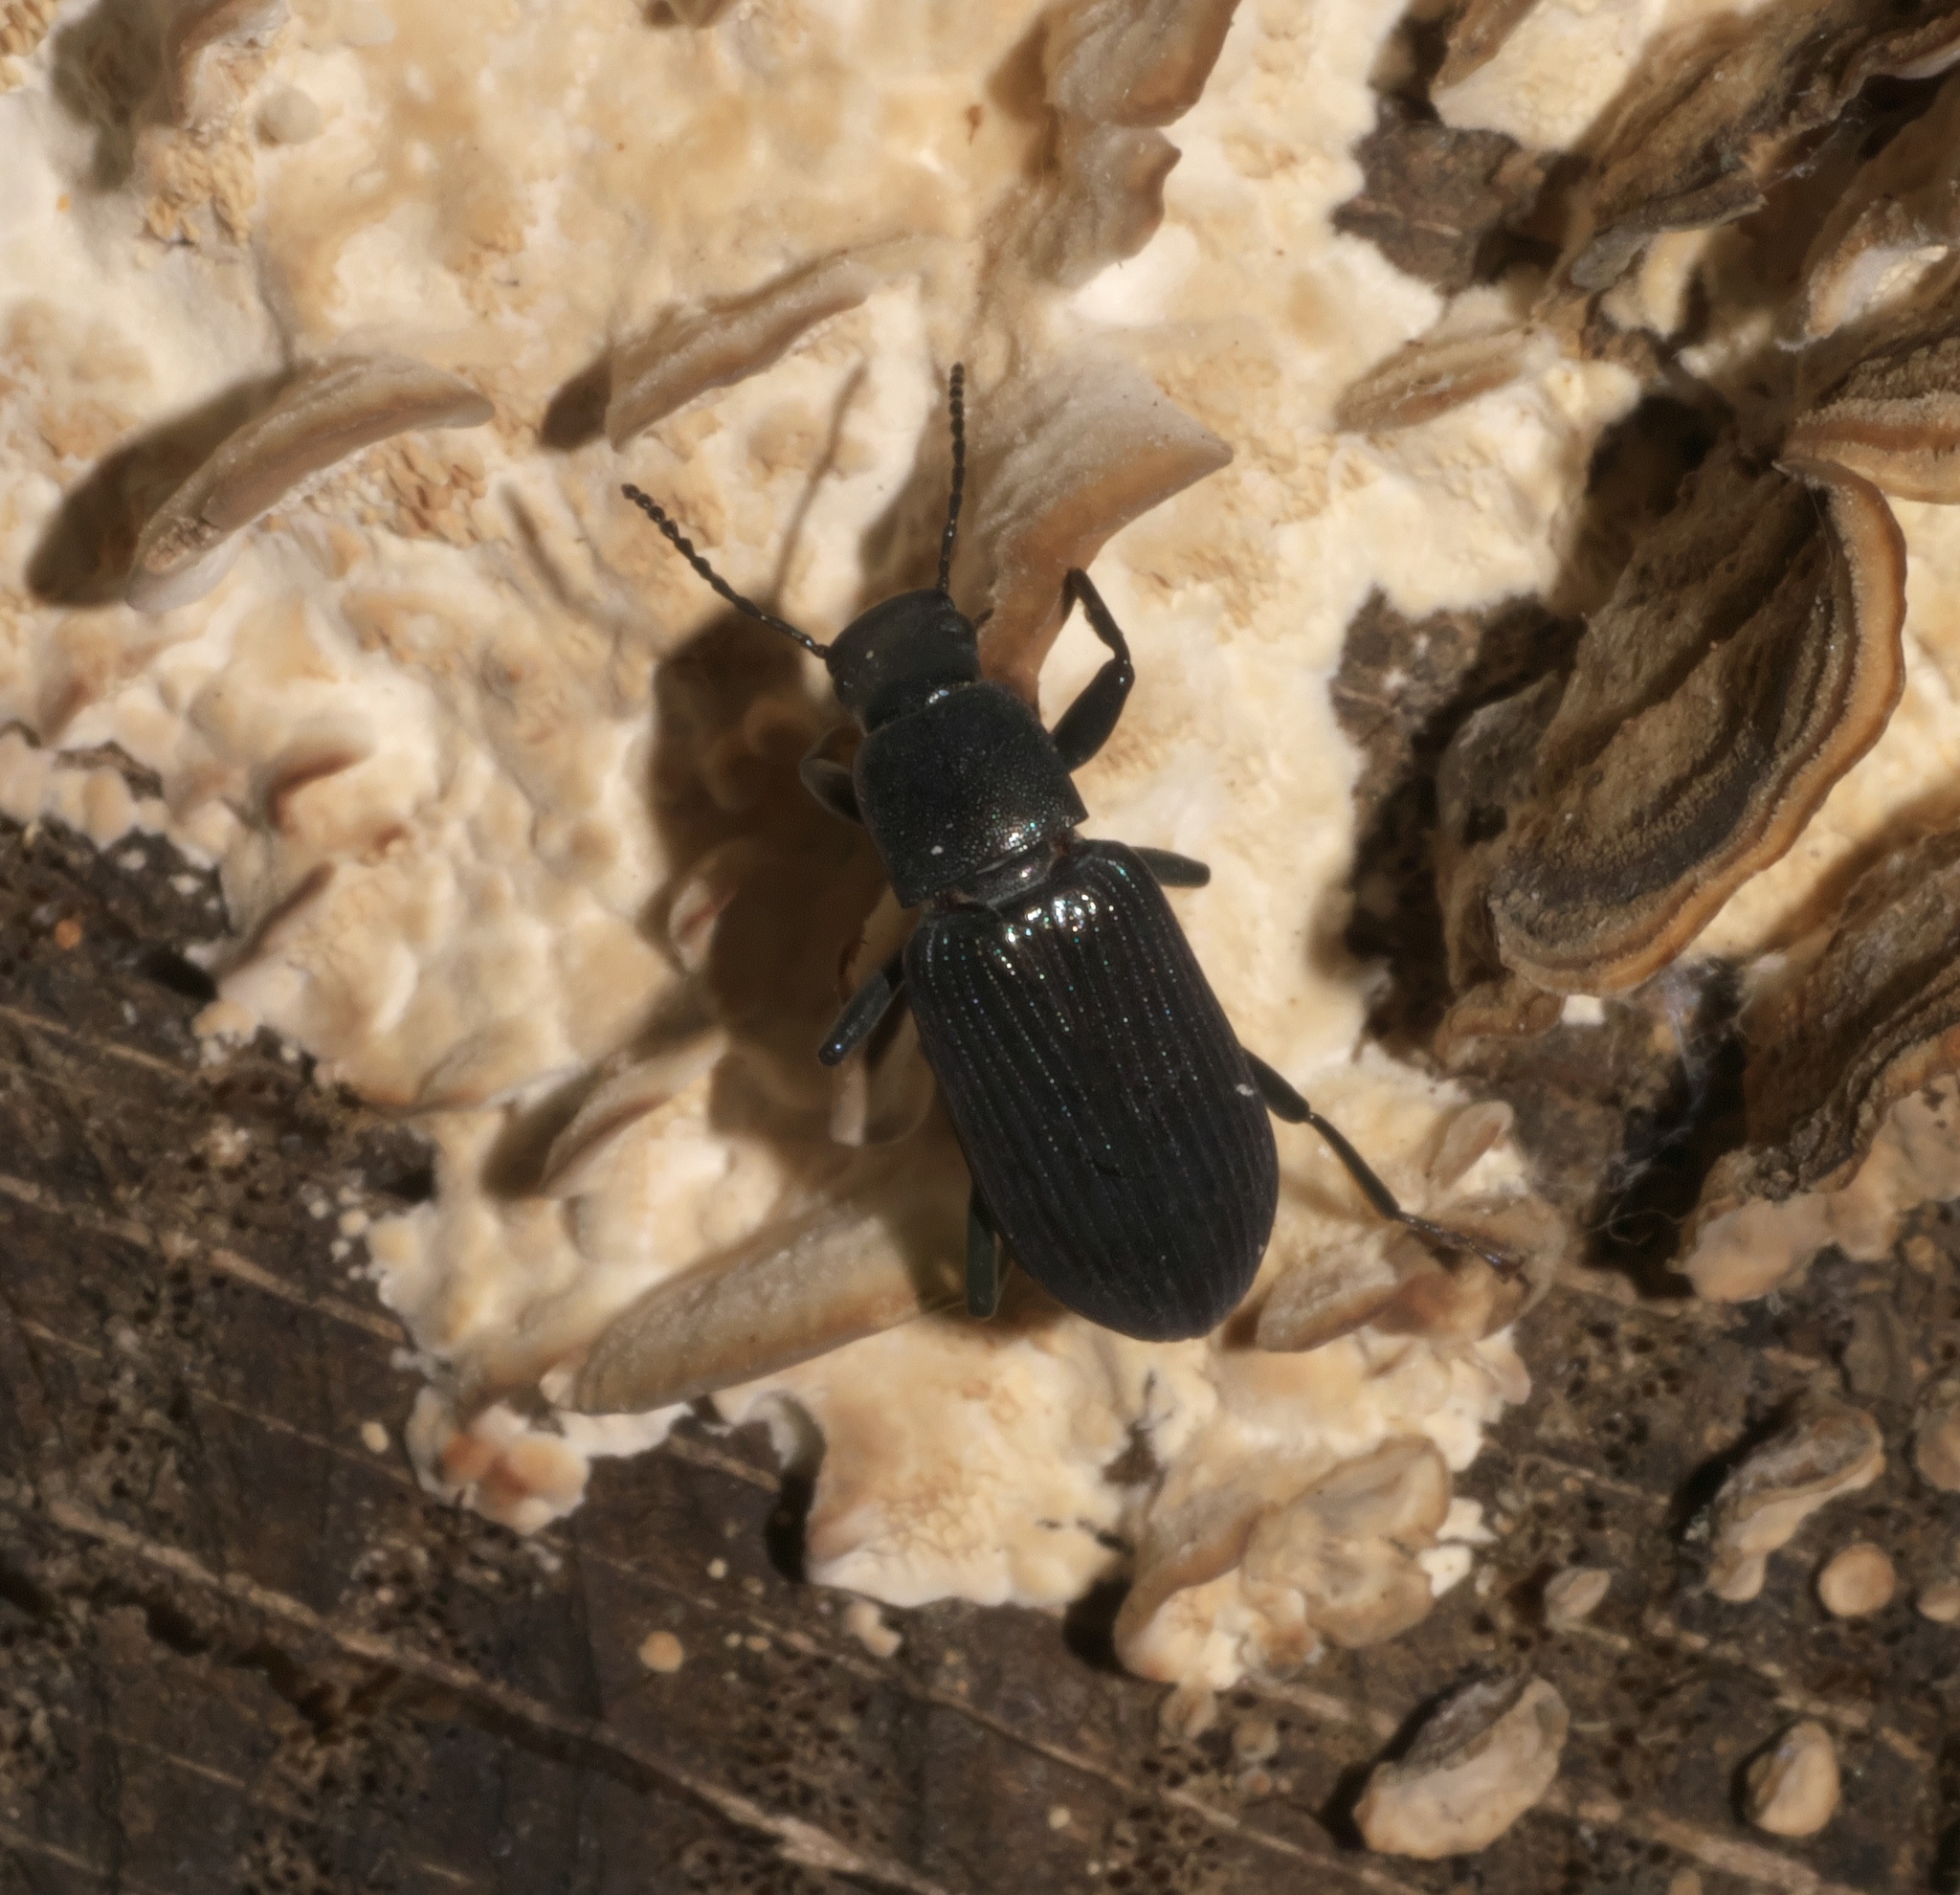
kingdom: Animalia
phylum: Arthropoda
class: Insecta
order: Coleoptera
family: Tenebrionidae
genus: Xylopinus
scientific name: Xylopinus saperdoides
